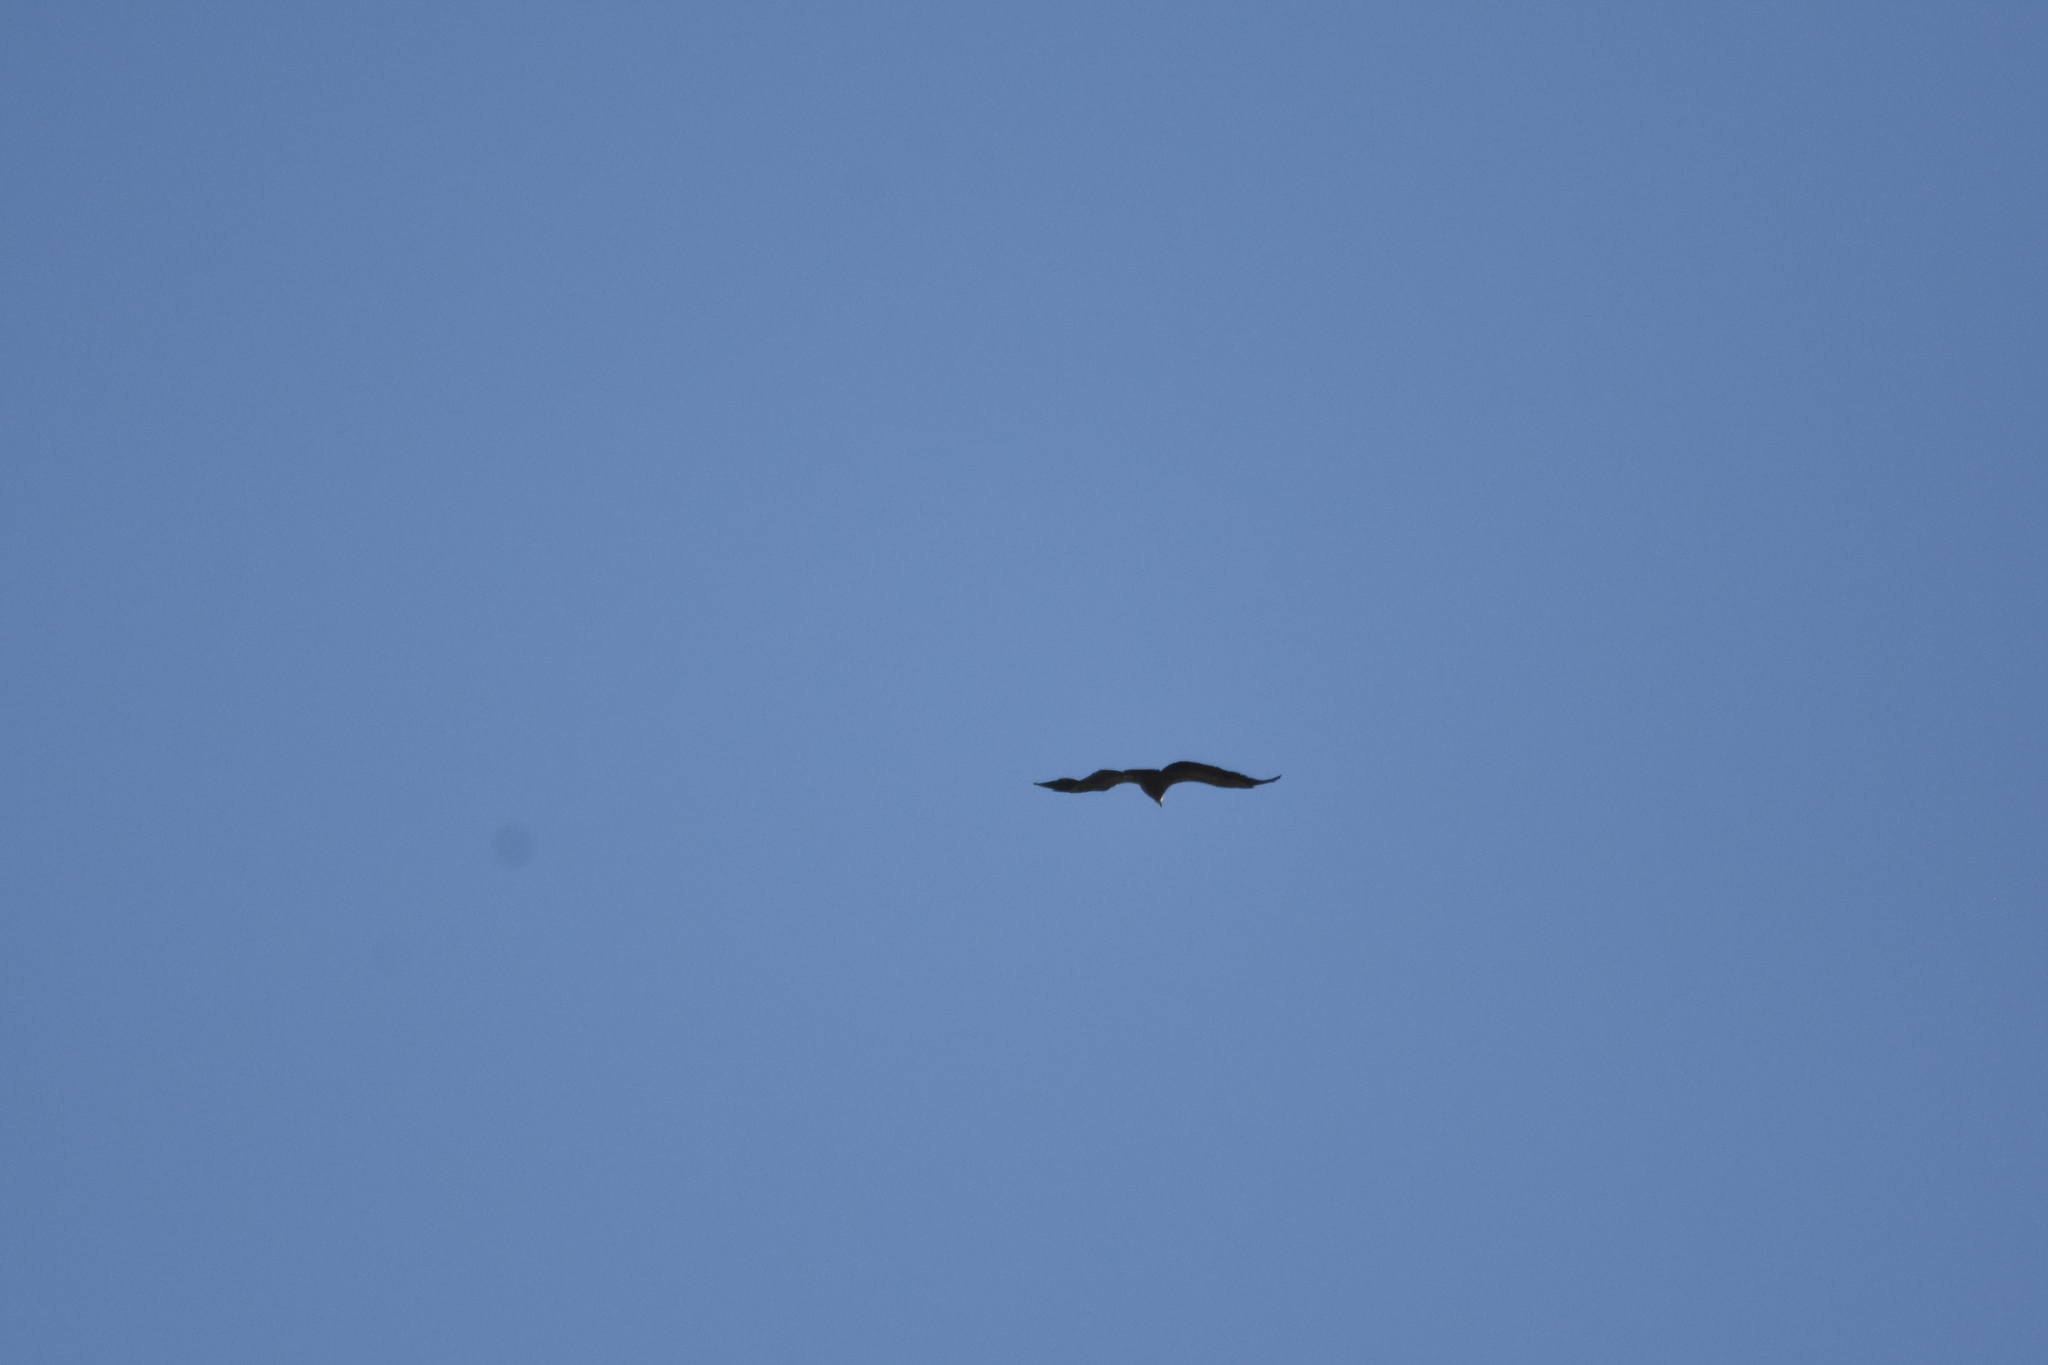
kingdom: Animalia
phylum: Chordata
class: Aves
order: Accipitriformes
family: Accipitridae
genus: Gyps
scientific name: Gyps fulvus
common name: Griffon vulture
